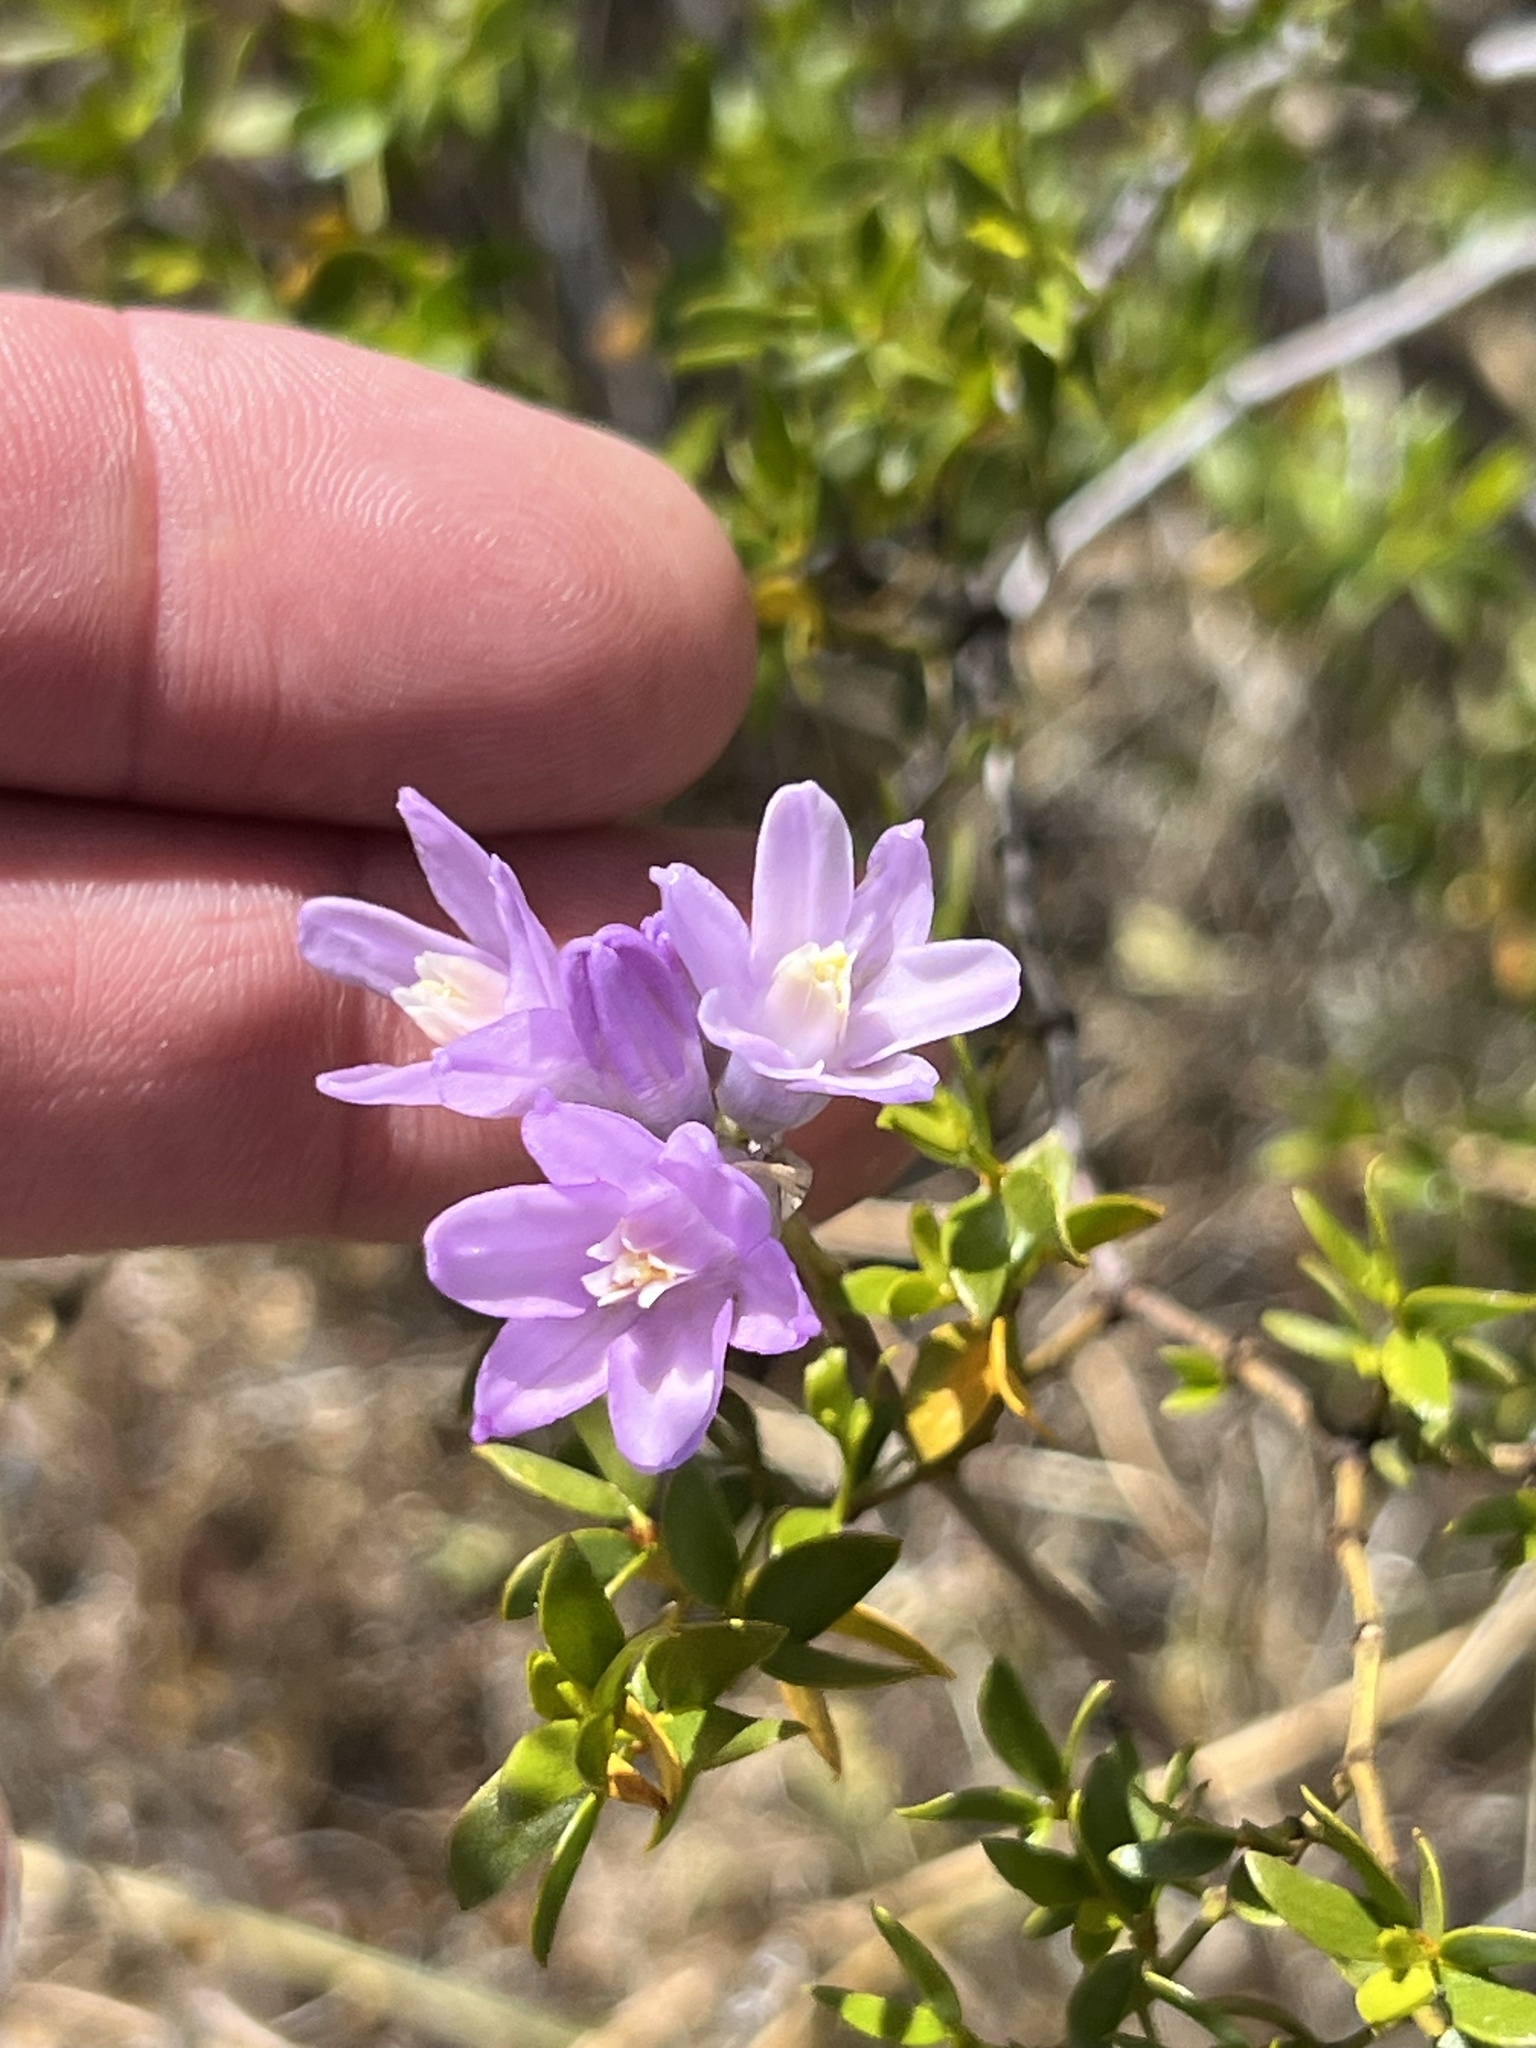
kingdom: Plantae
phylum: Tracheophyta
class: Liliopsida
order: Asparagales
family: Asparagaceae
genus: Dipterostemon
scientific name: Dipterostemon capitatus
